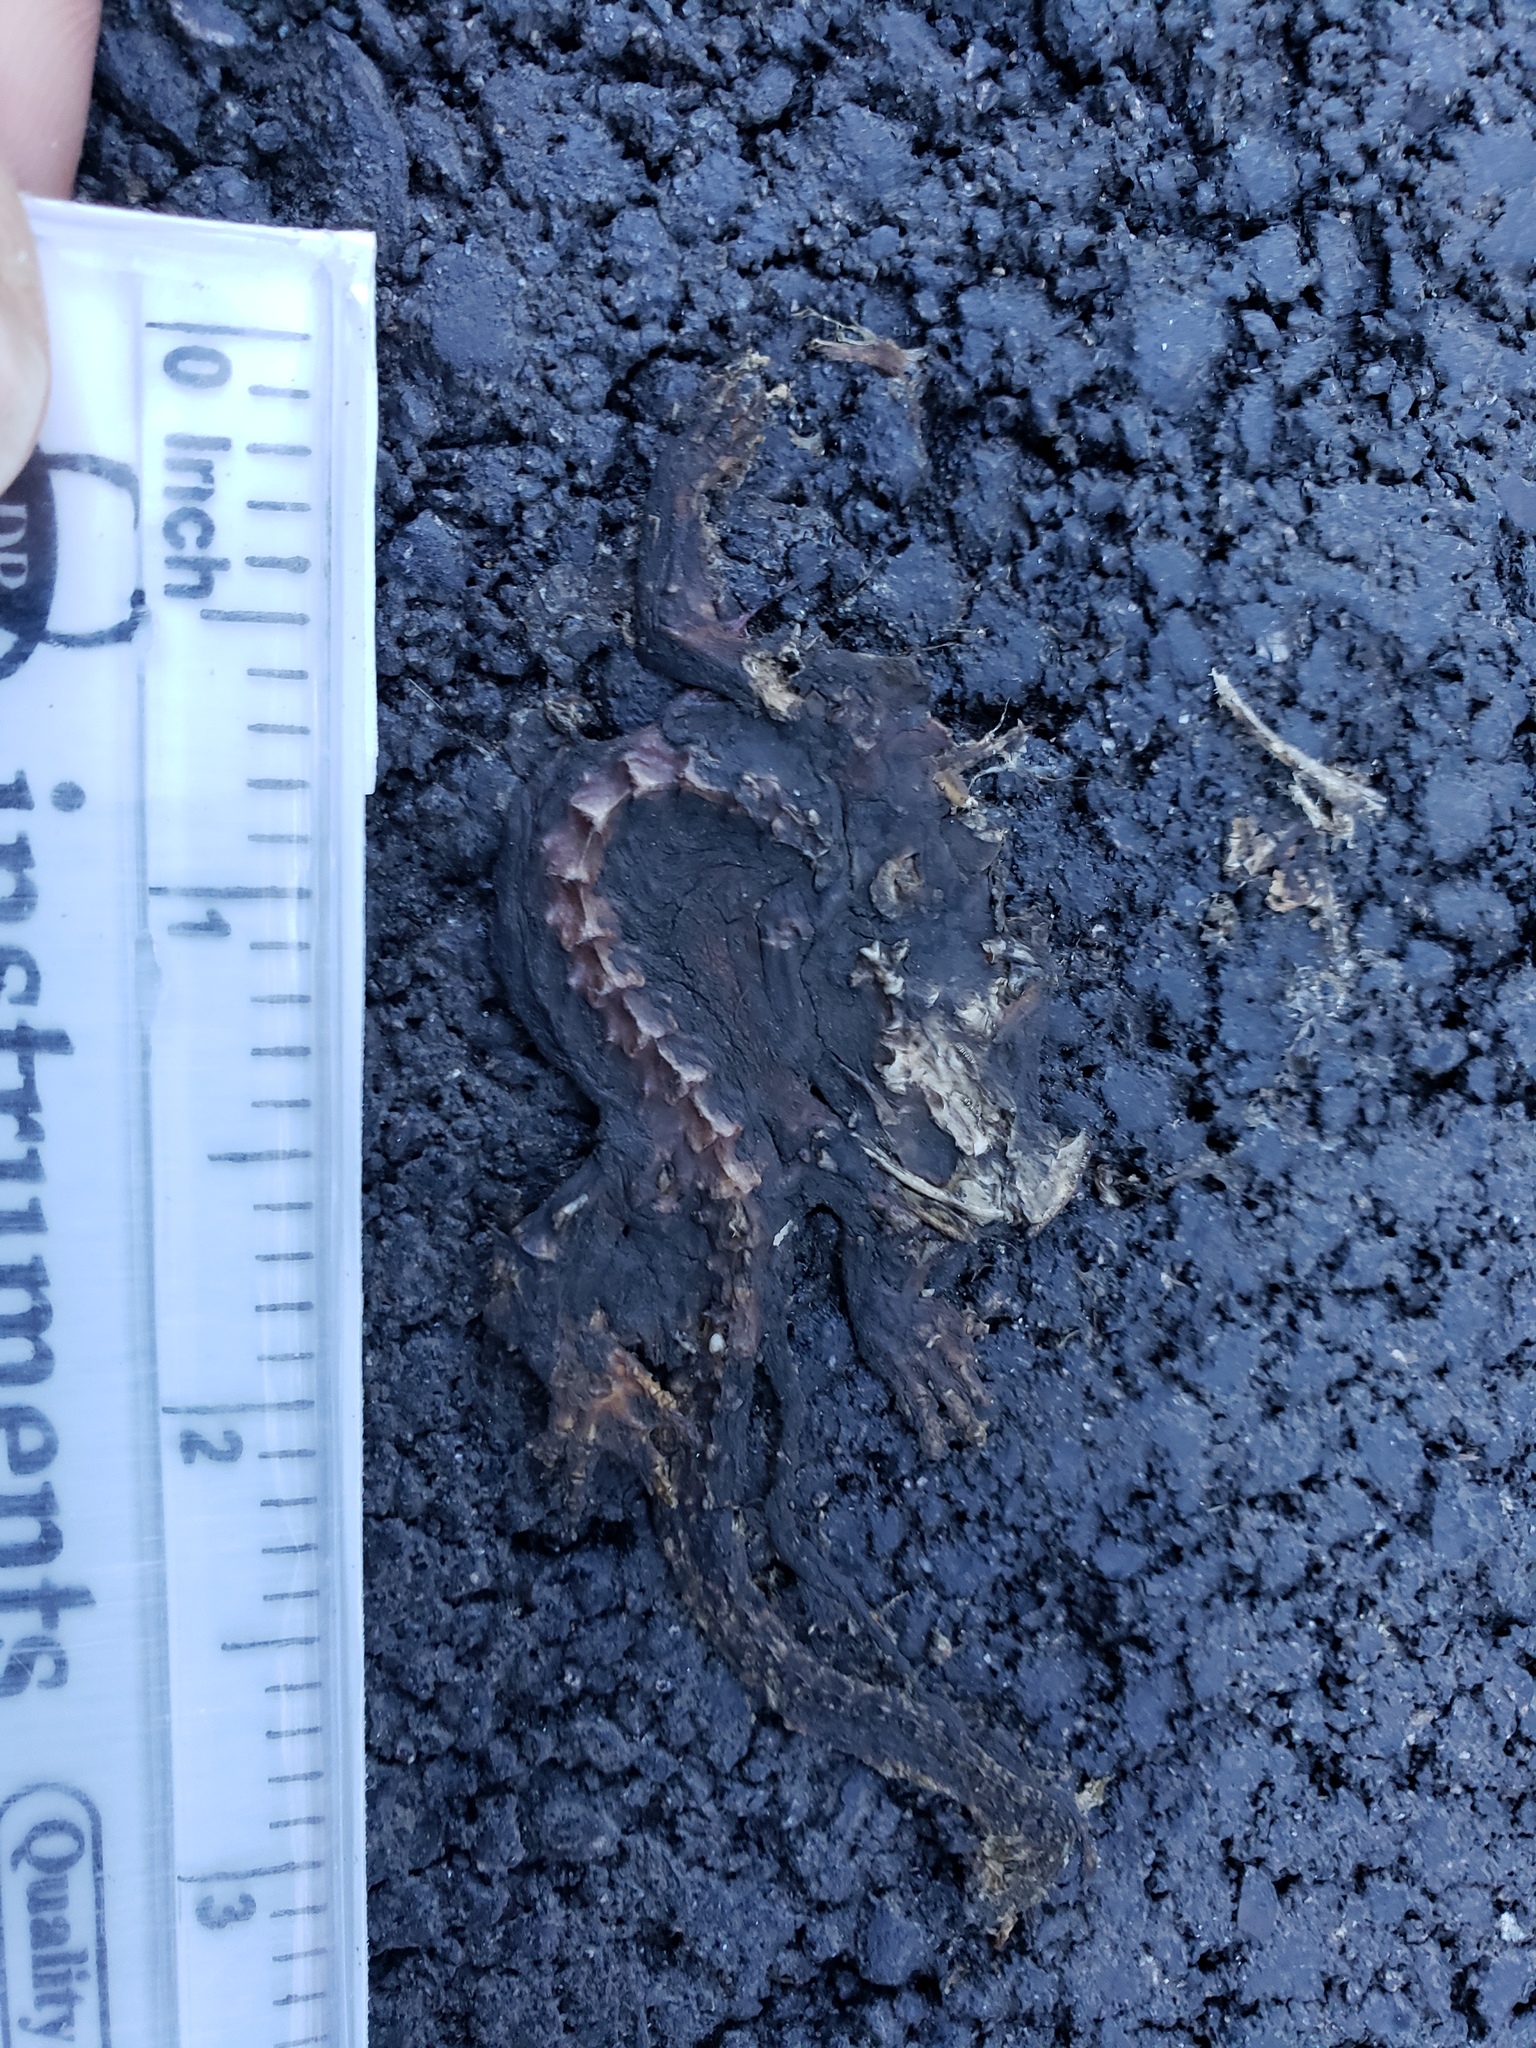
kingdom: Animalia
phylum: Chordata
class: Amphibia
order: Caudata
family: Salamandridae
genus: Taricha
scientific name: Taricha
